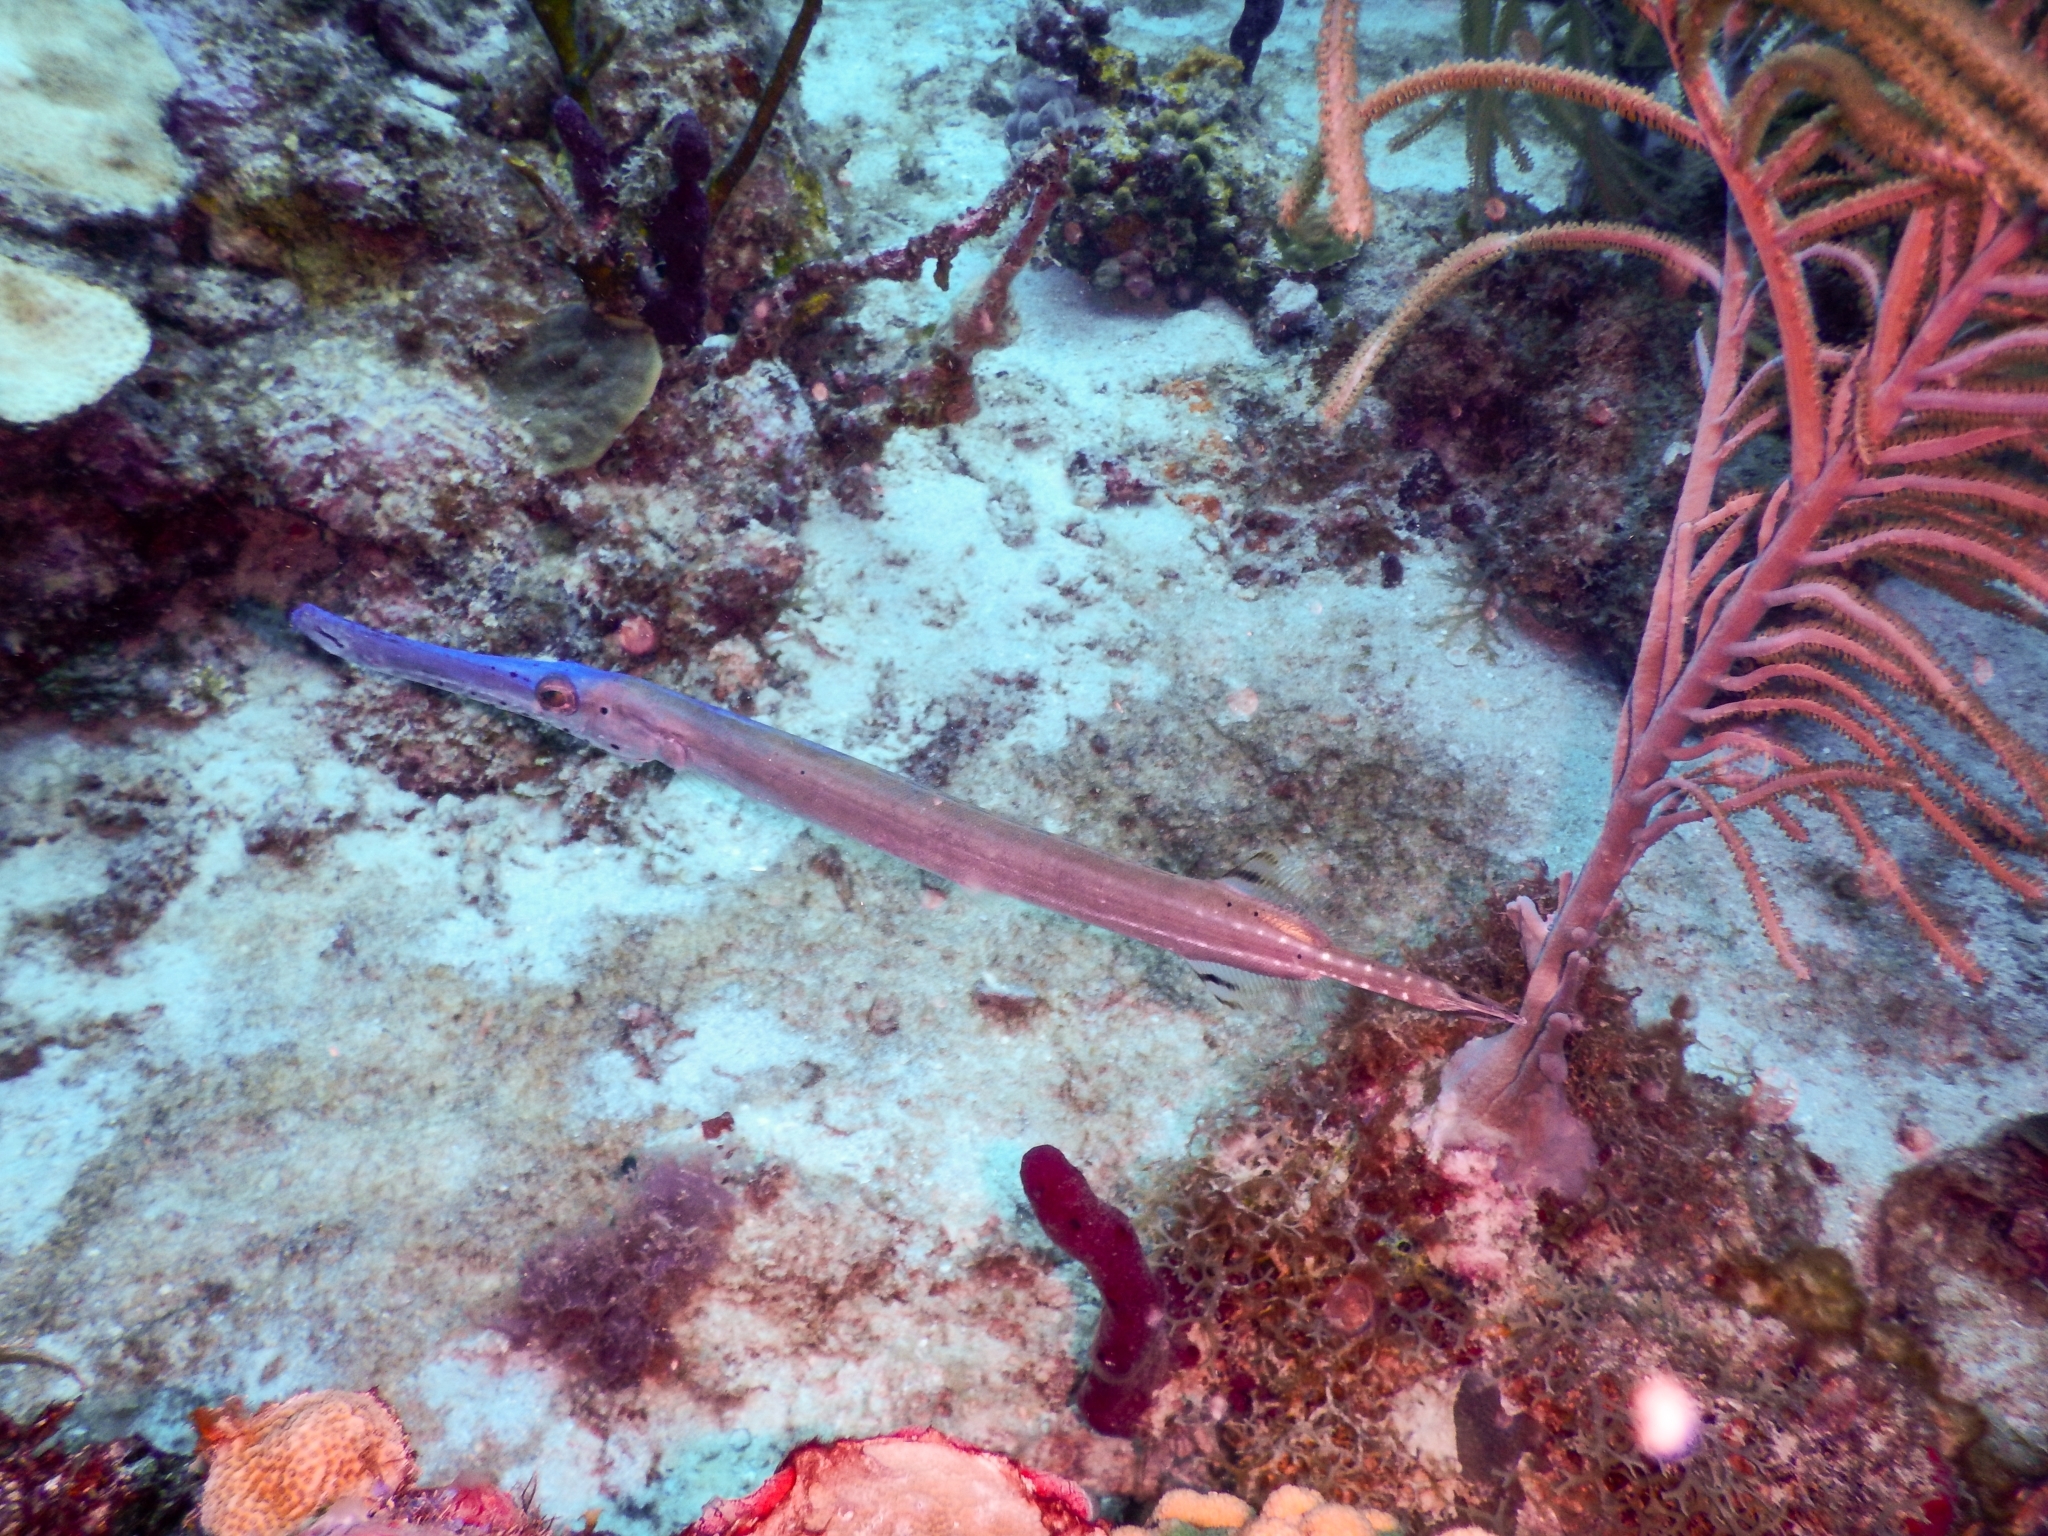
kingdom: Animalia
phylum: Chordata
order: Syngnathiformes
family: Aulostomidae
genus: Aulostomus
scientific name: Aulostomus maculatus
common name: West atlantic trumpetfish
